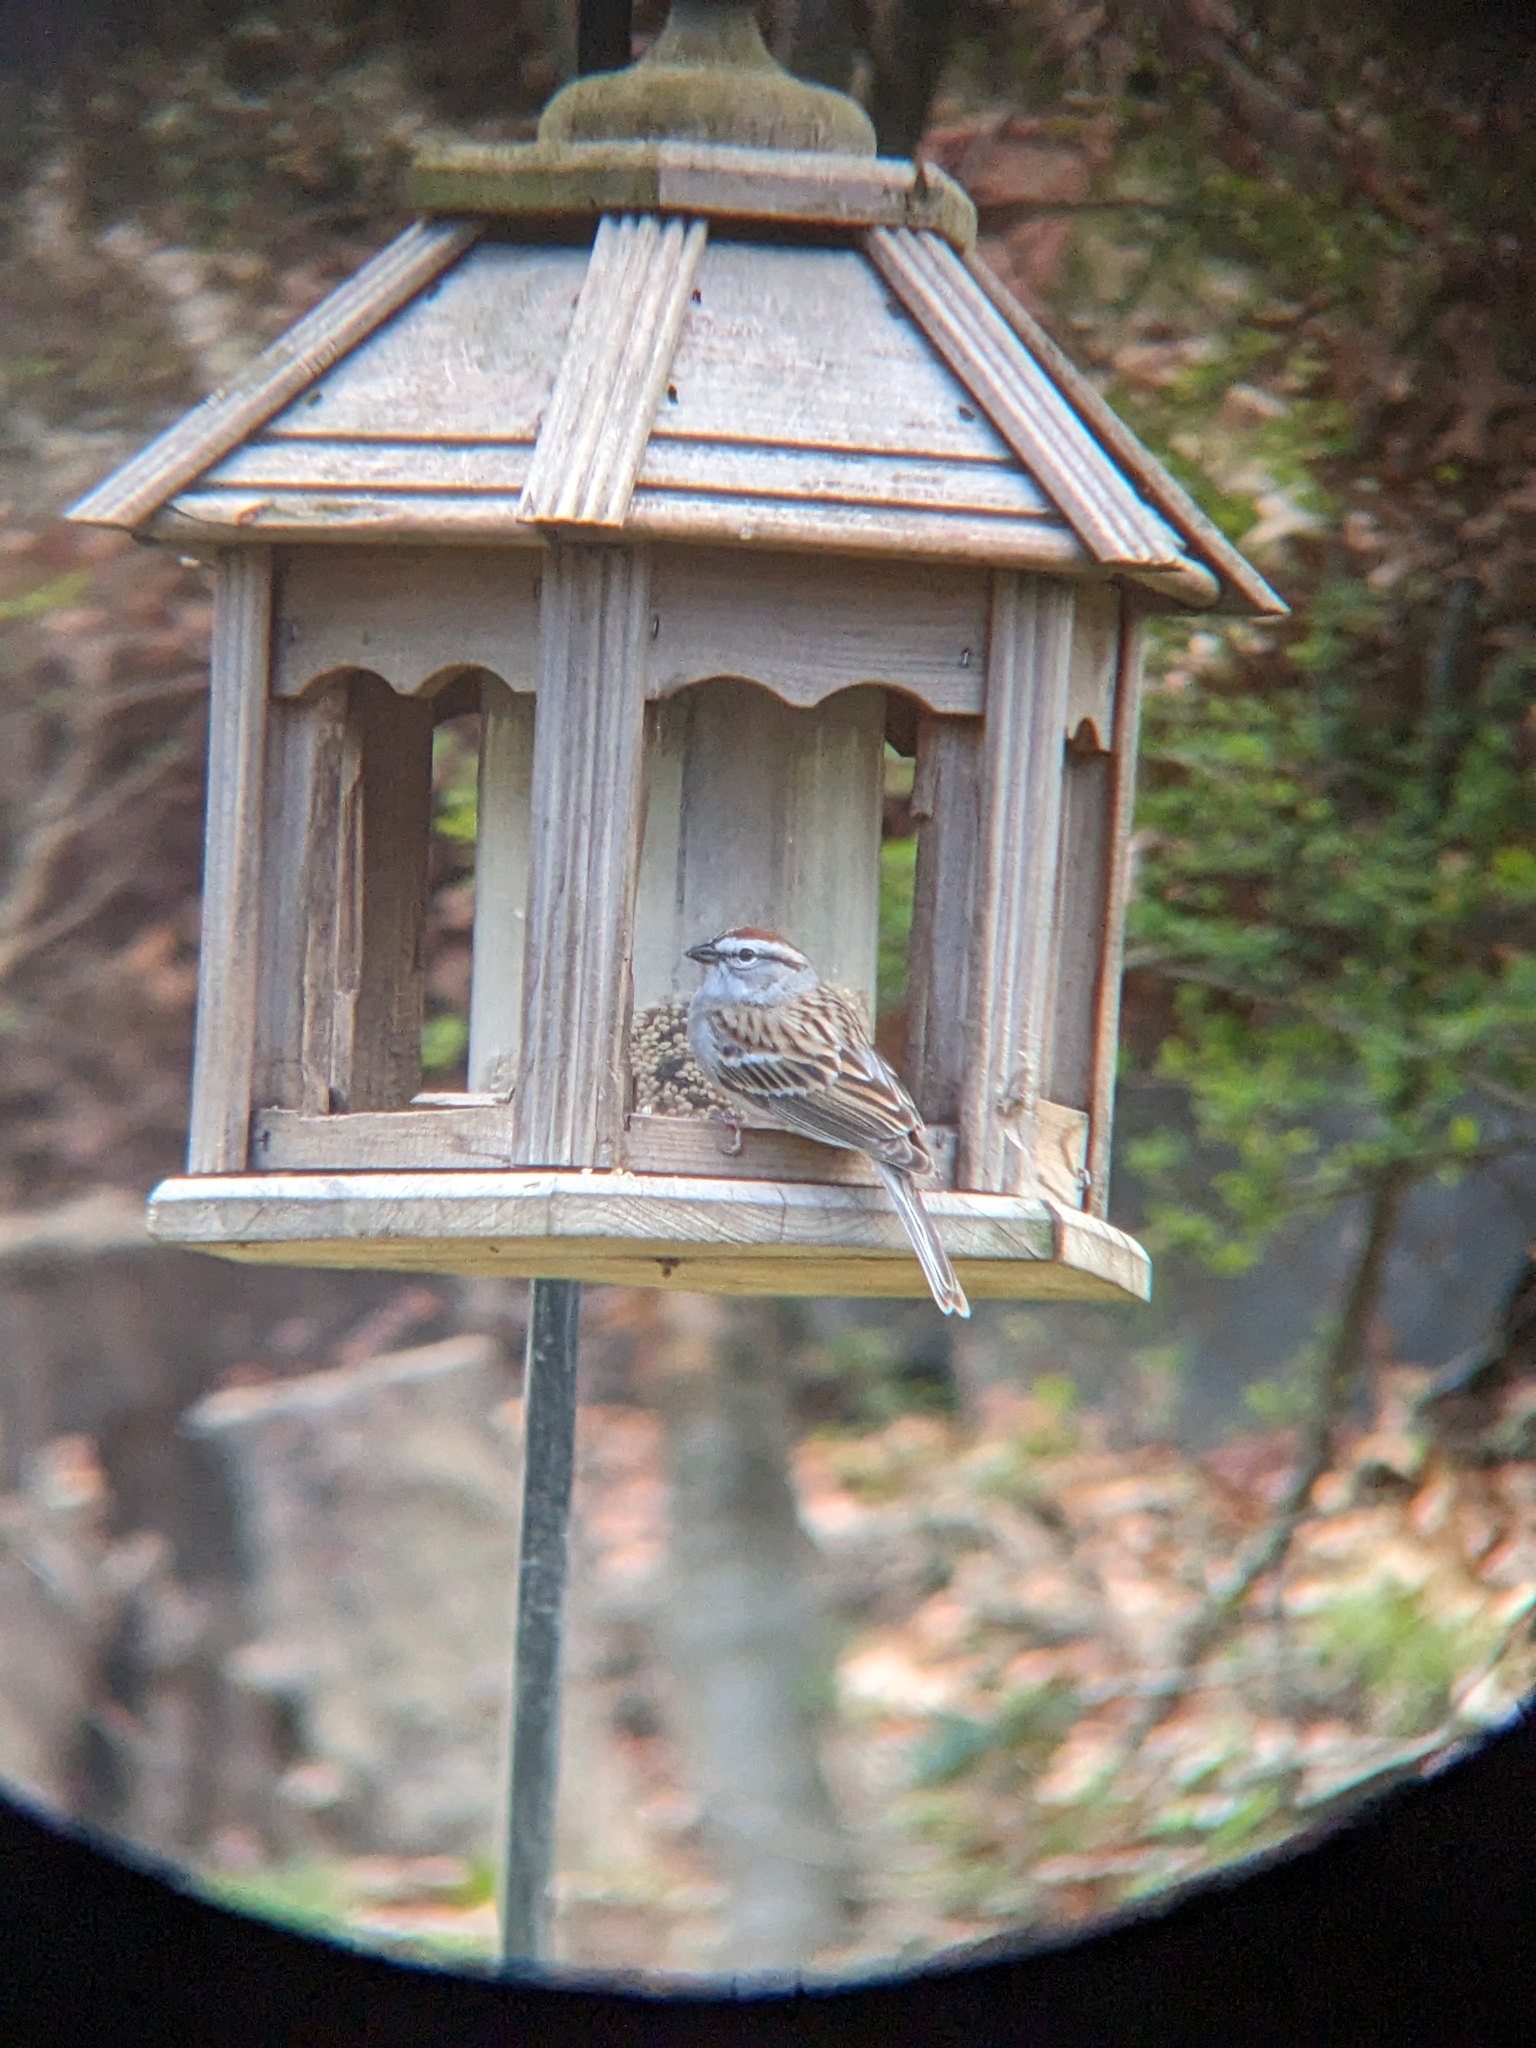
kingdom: Animalia
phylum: Chordata
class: Aves
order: Passeriformes
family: Passerellidae
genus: Spizella
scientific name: Spizella passerina
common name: Chipping sparrow
